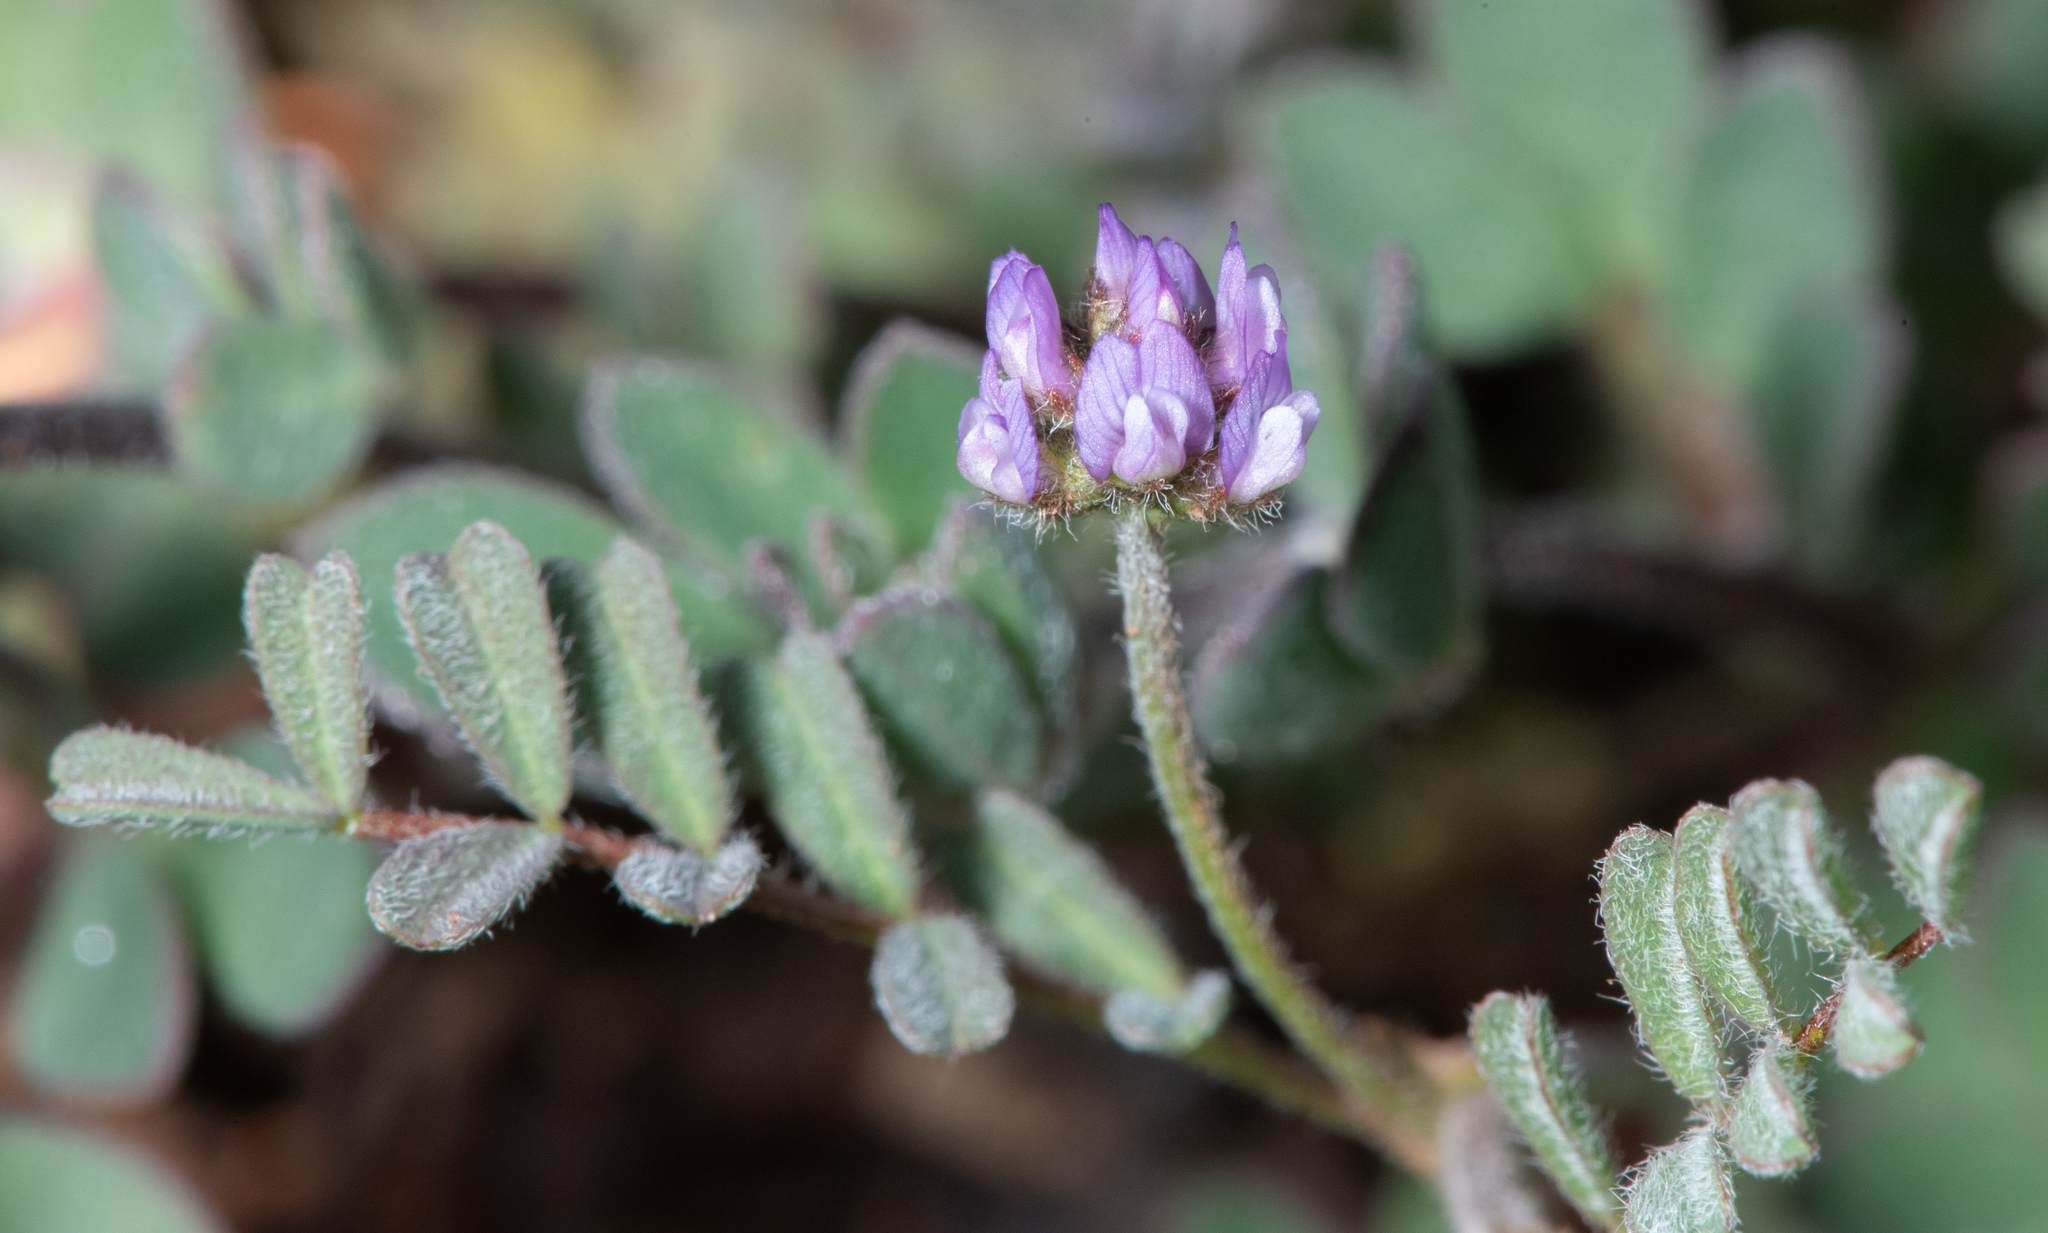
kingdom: Plantae
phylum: Tracheophyta
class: Magnoliopsida
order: Fabales
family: Fabaceae
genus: Astragalus
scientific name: Astragalus gambelianus
